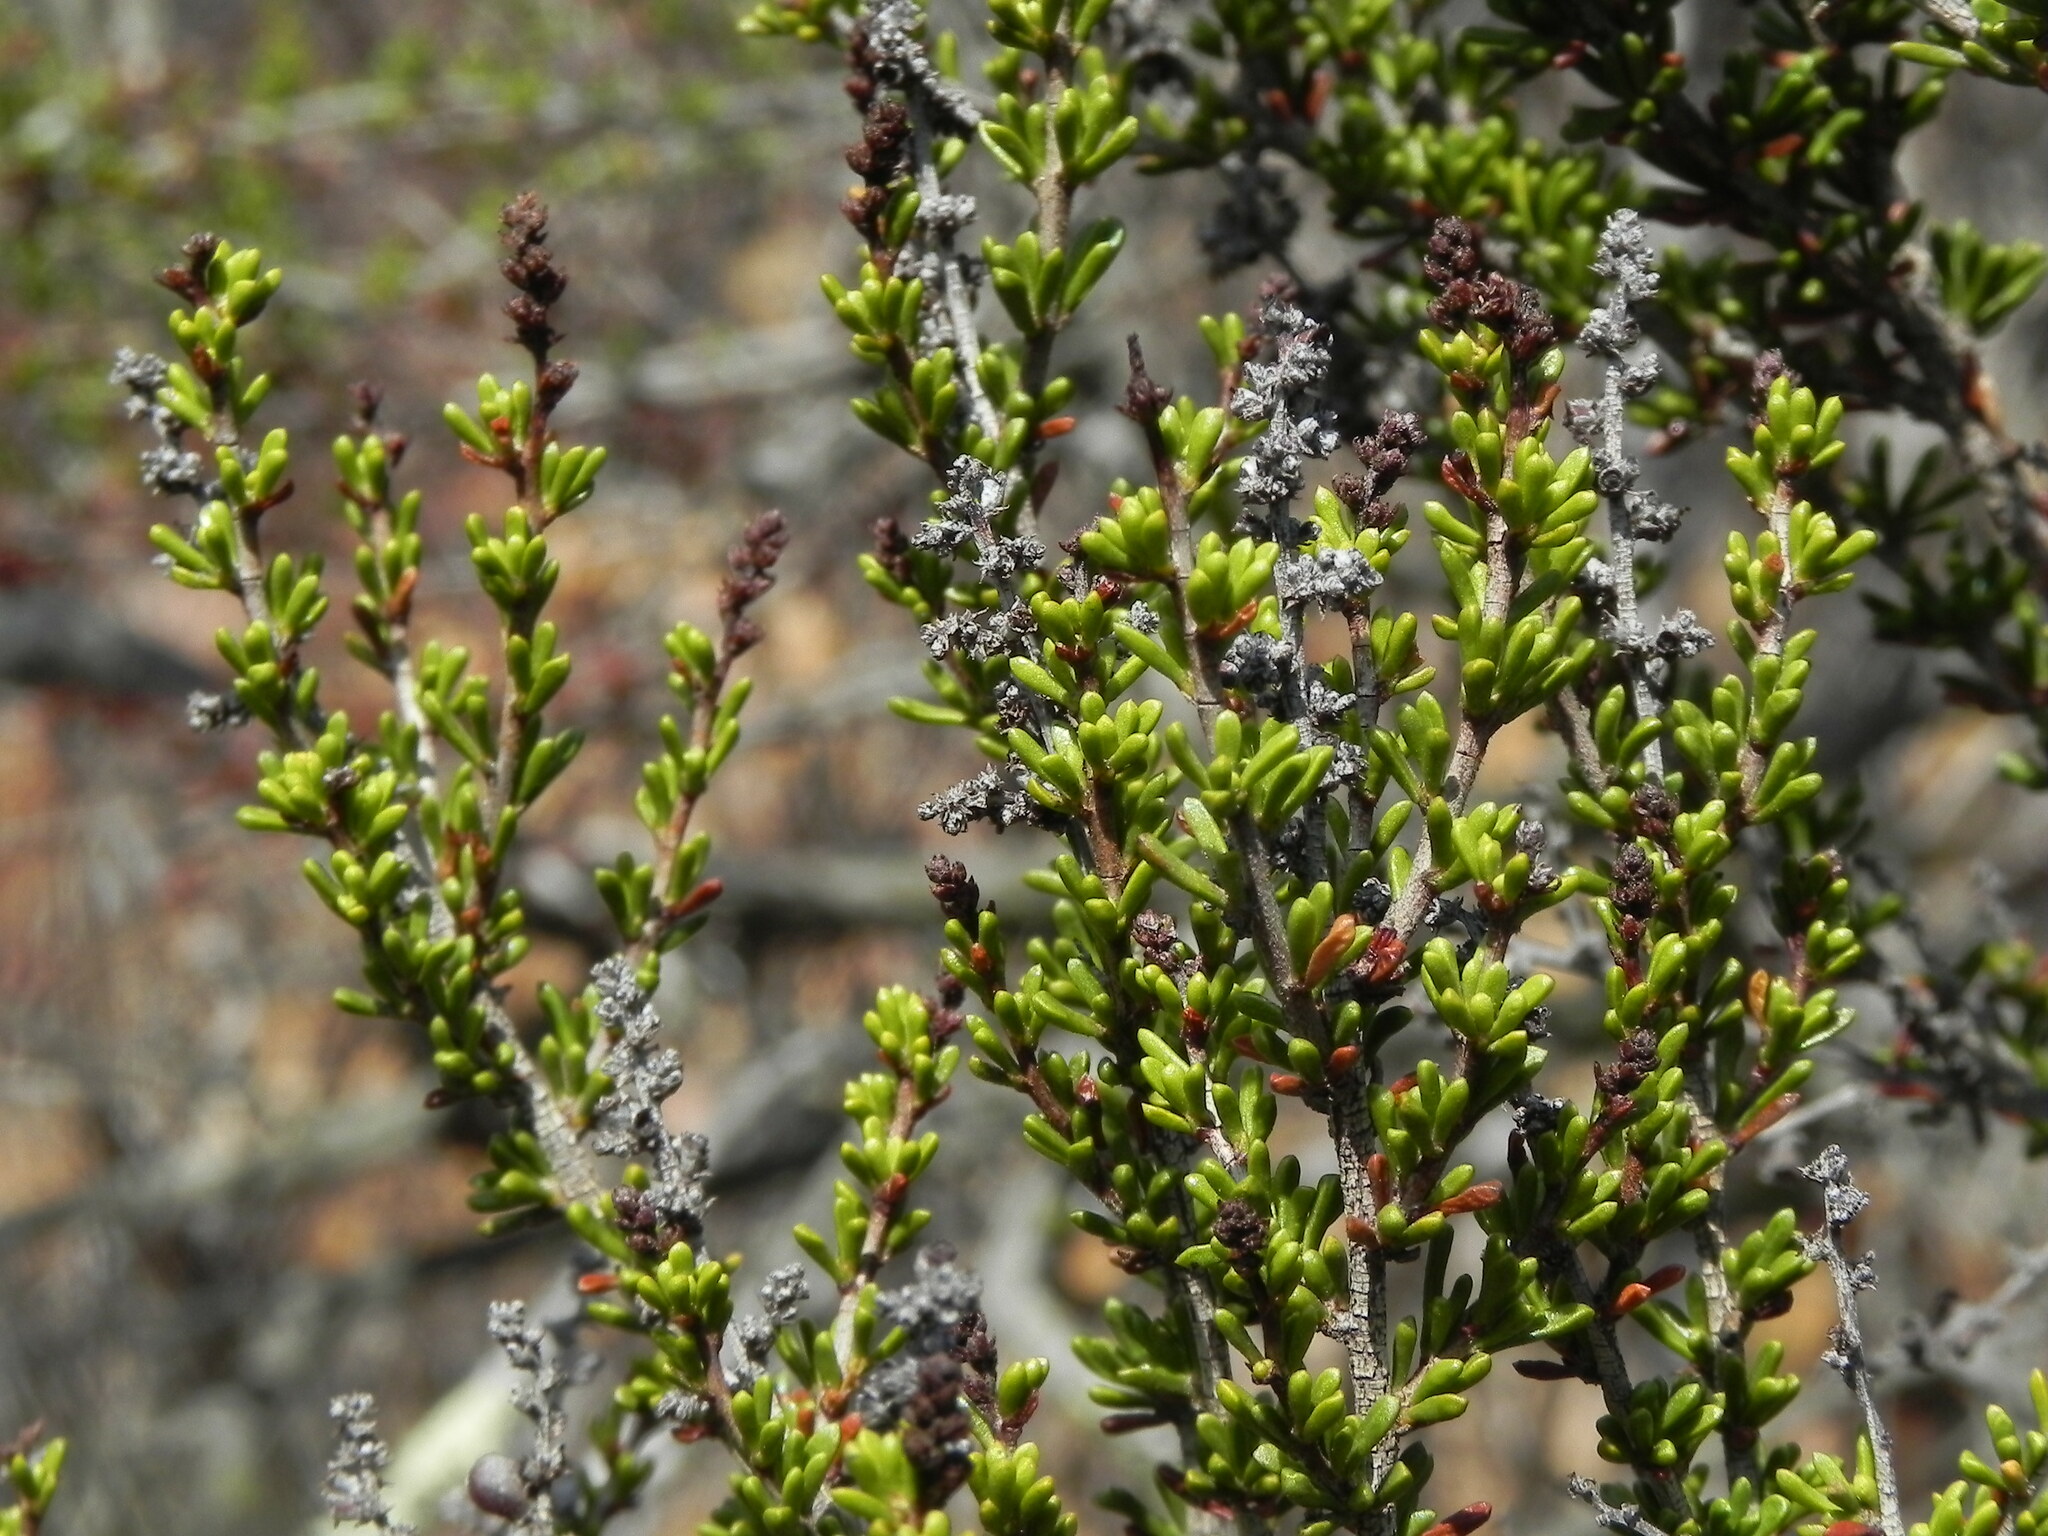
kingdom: Plantae
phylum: Tracheophyta
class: Magnoliopsida
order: Rosales
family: Rosaceae
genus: Adenostoma
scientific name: Adenostoma fasciculatum
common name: Chamise
